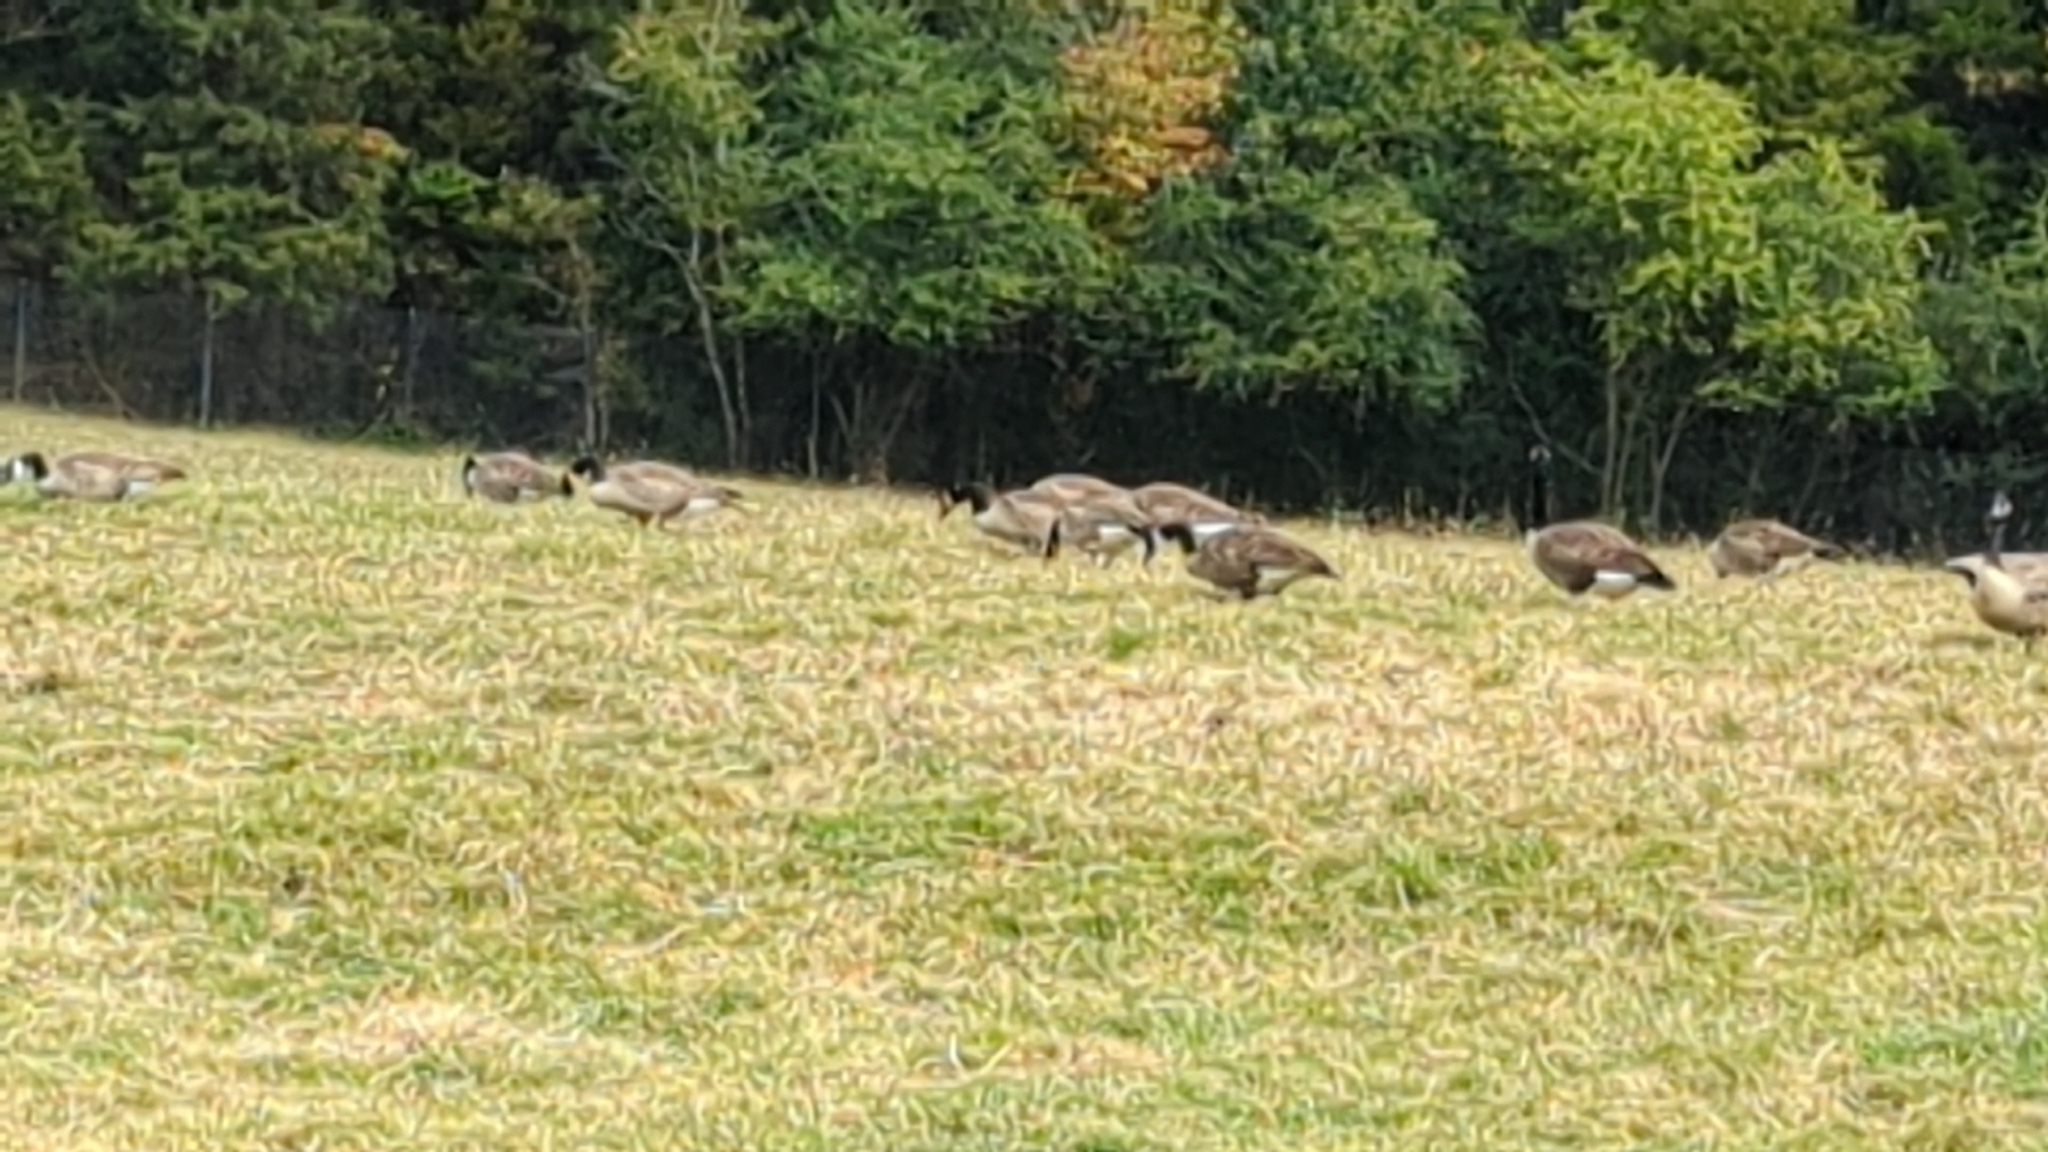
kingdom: Animalia
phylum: Chordata
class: Aves
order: Anseriformes
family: Anatidae
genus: Branta
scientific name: Branta canadensis
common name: Canada goose
